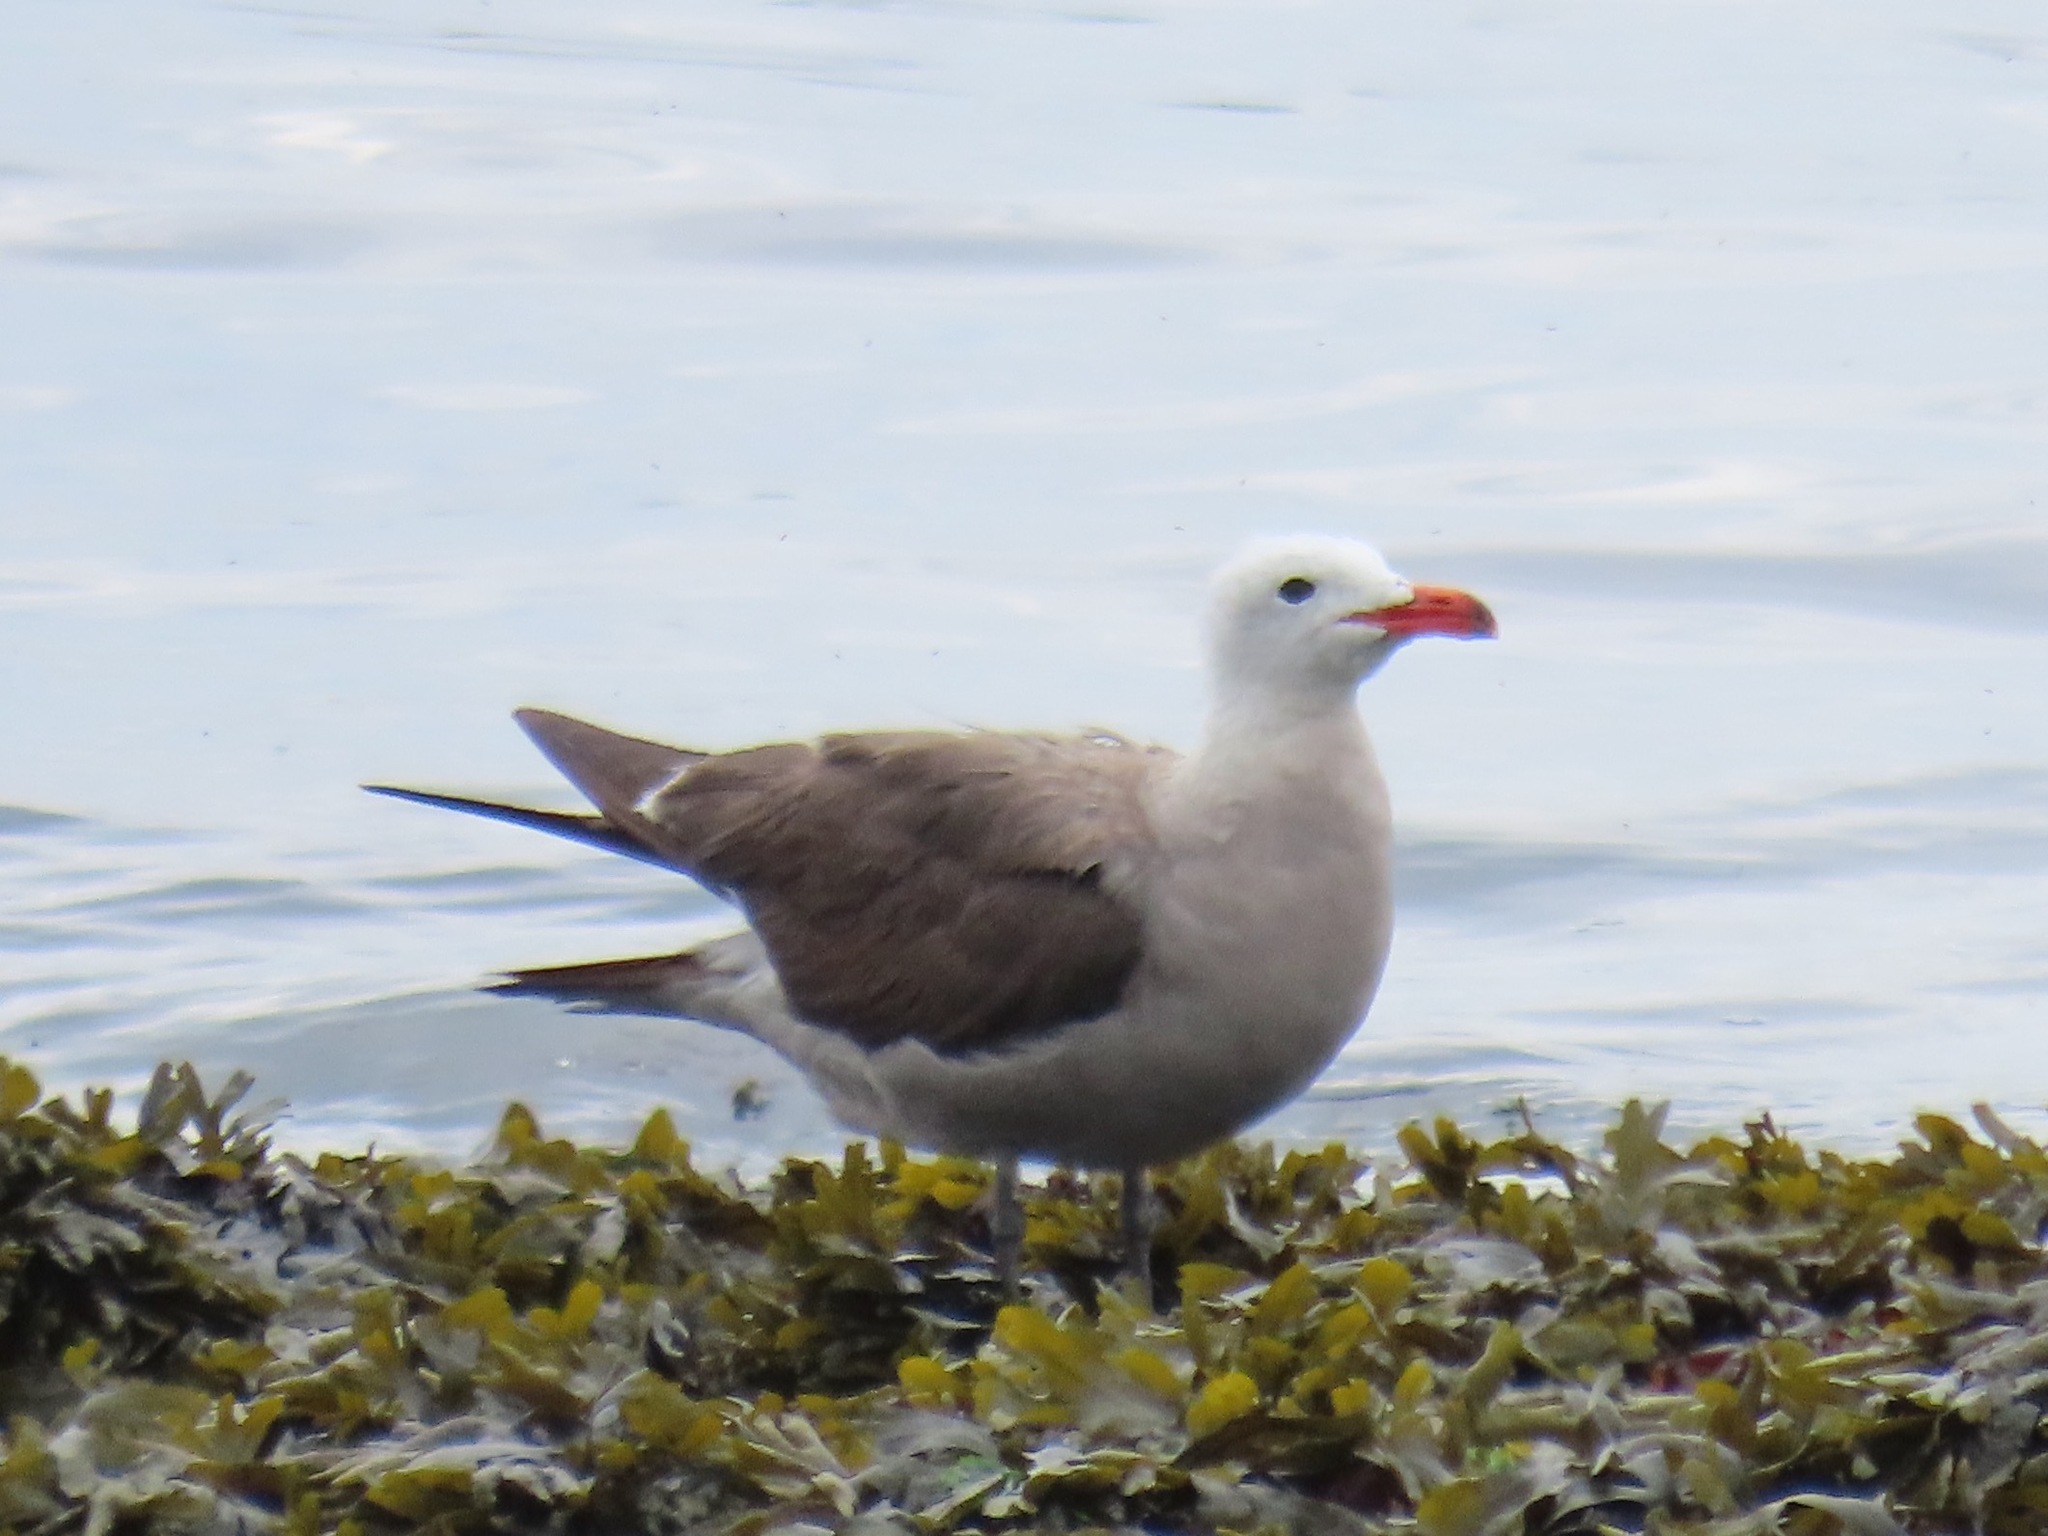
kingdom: Animalia
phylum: Chordata
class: Aves
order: Charadriiformes
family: Laridae
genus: Larus
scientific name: Larus heermanni
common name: Heermann's gull
